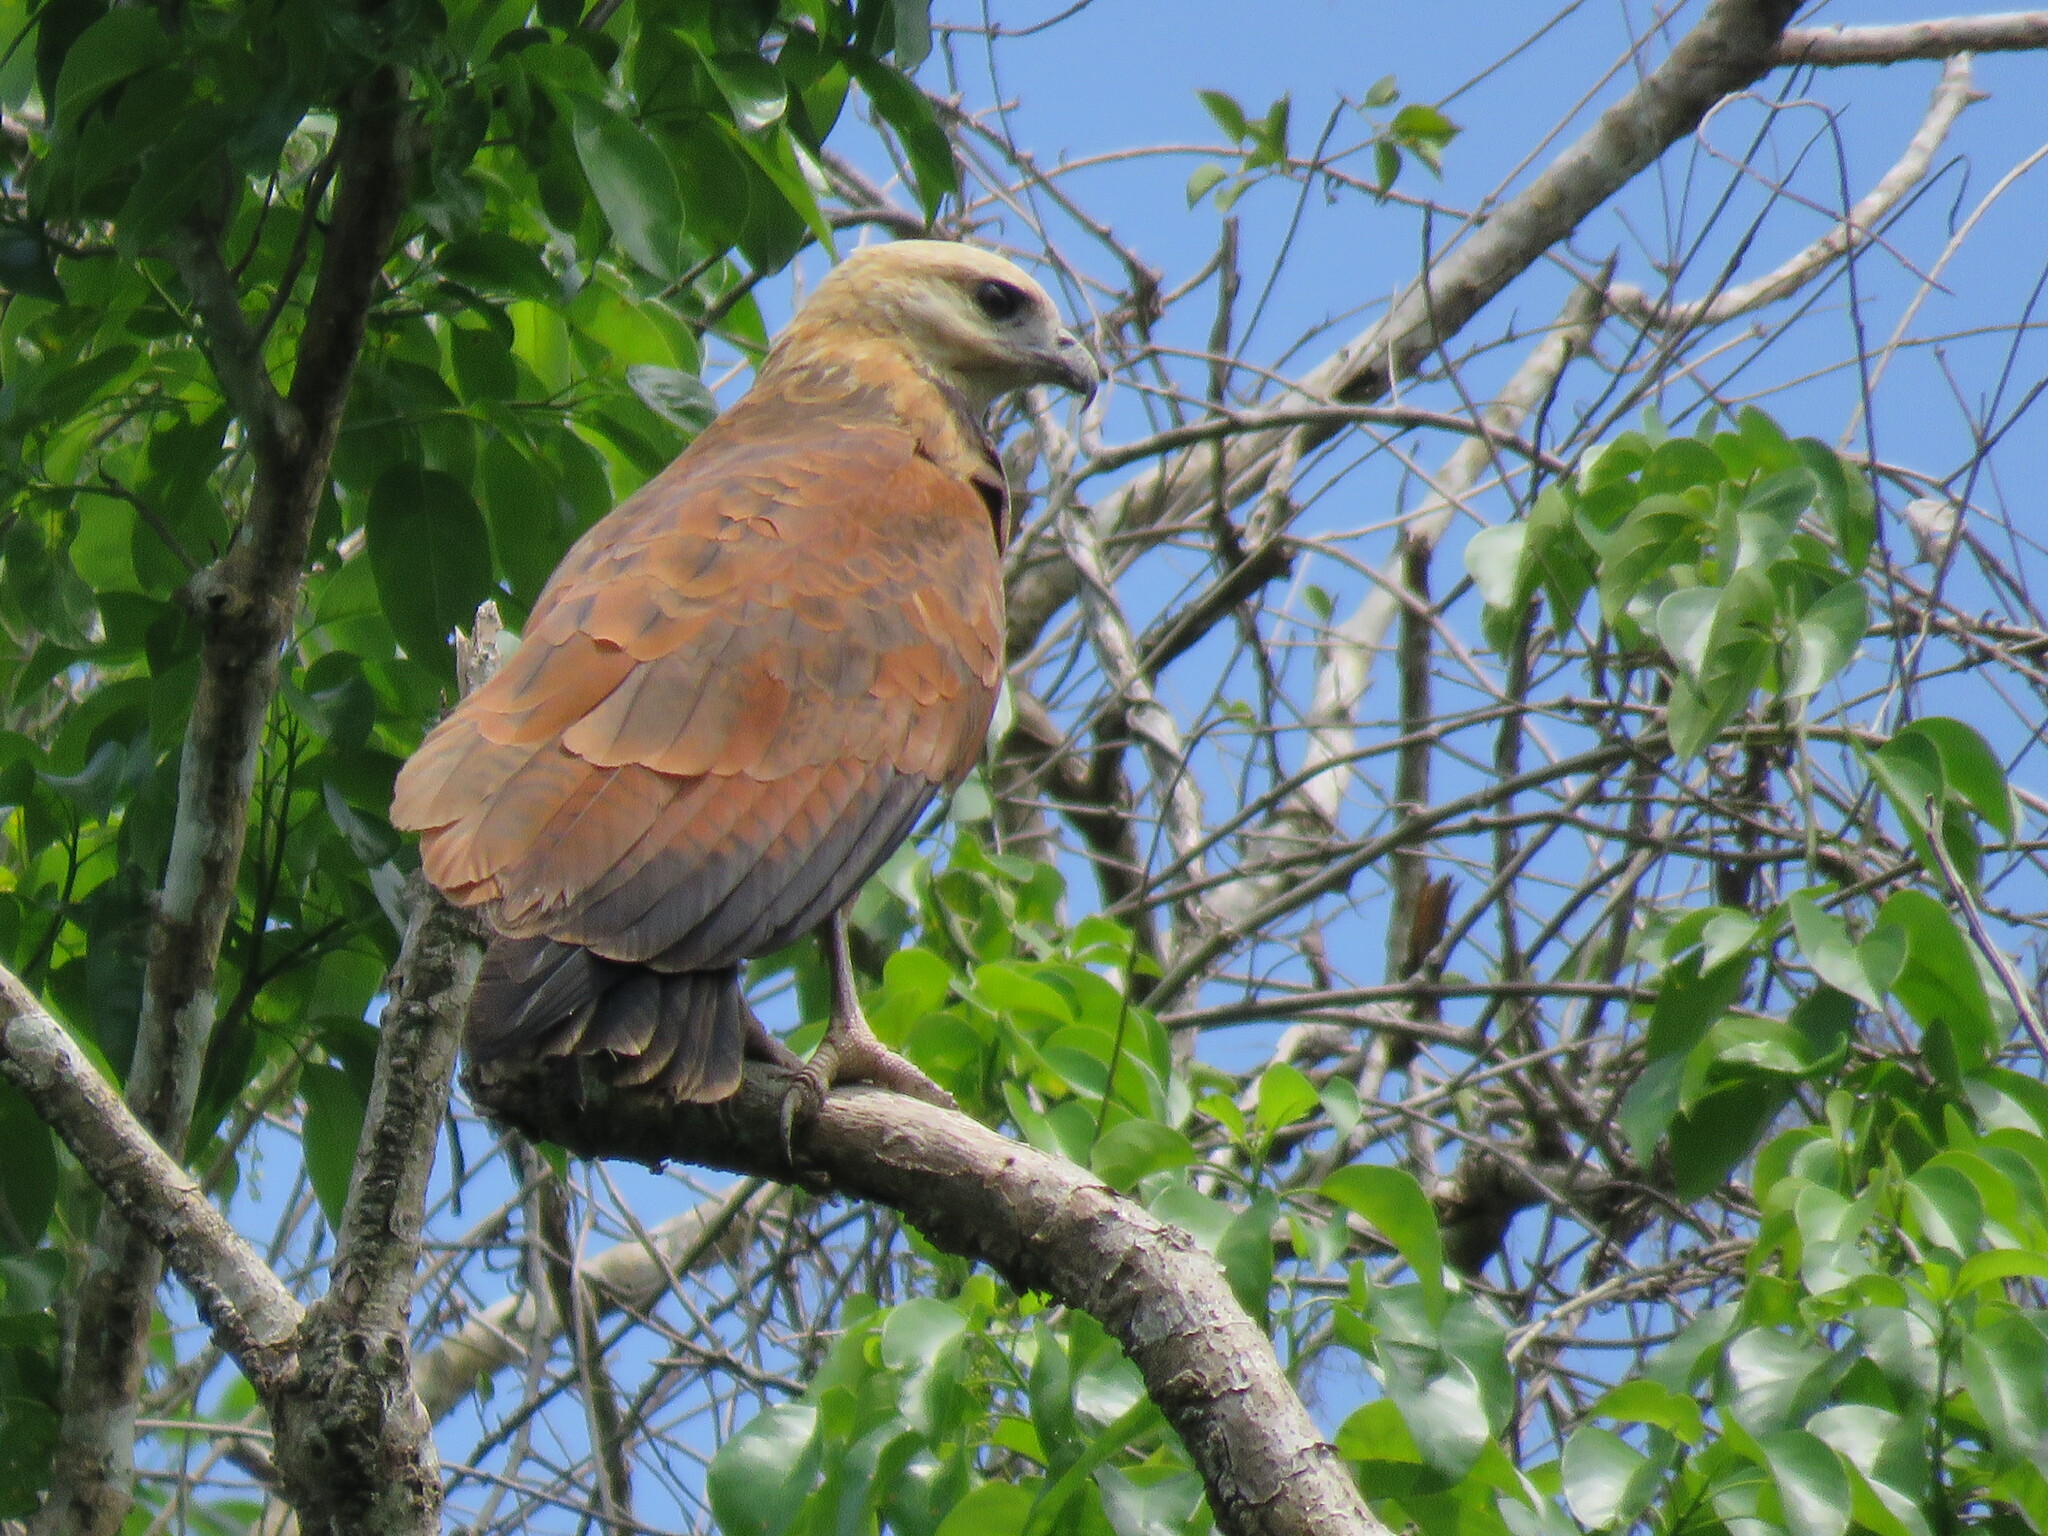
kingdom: Animalia
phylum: Chordata
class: Aves
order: Accipitriformes
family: Accipitridae
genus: Busarellus
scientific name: Busarellus nigricollis
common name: Black-collared hawk
